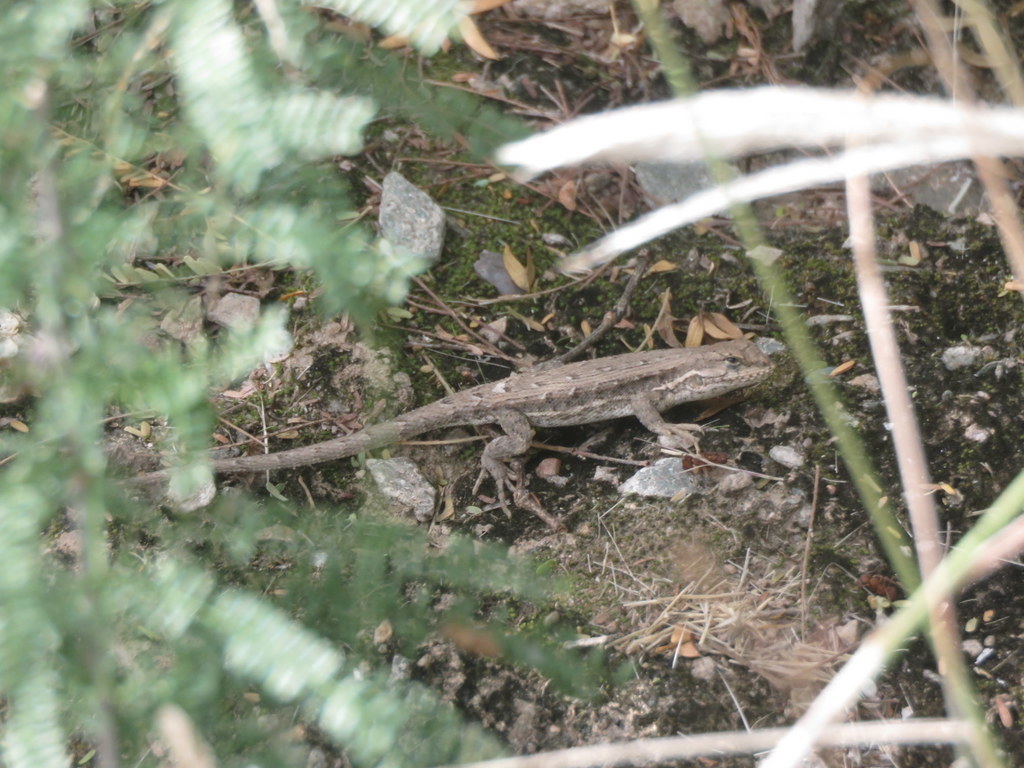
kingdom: Animalia
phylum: Chordata
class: Squamata
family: Liolaemidae
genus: Liolaemus
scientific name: Liolaemus chacoensis
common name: Chaco tree iguana
